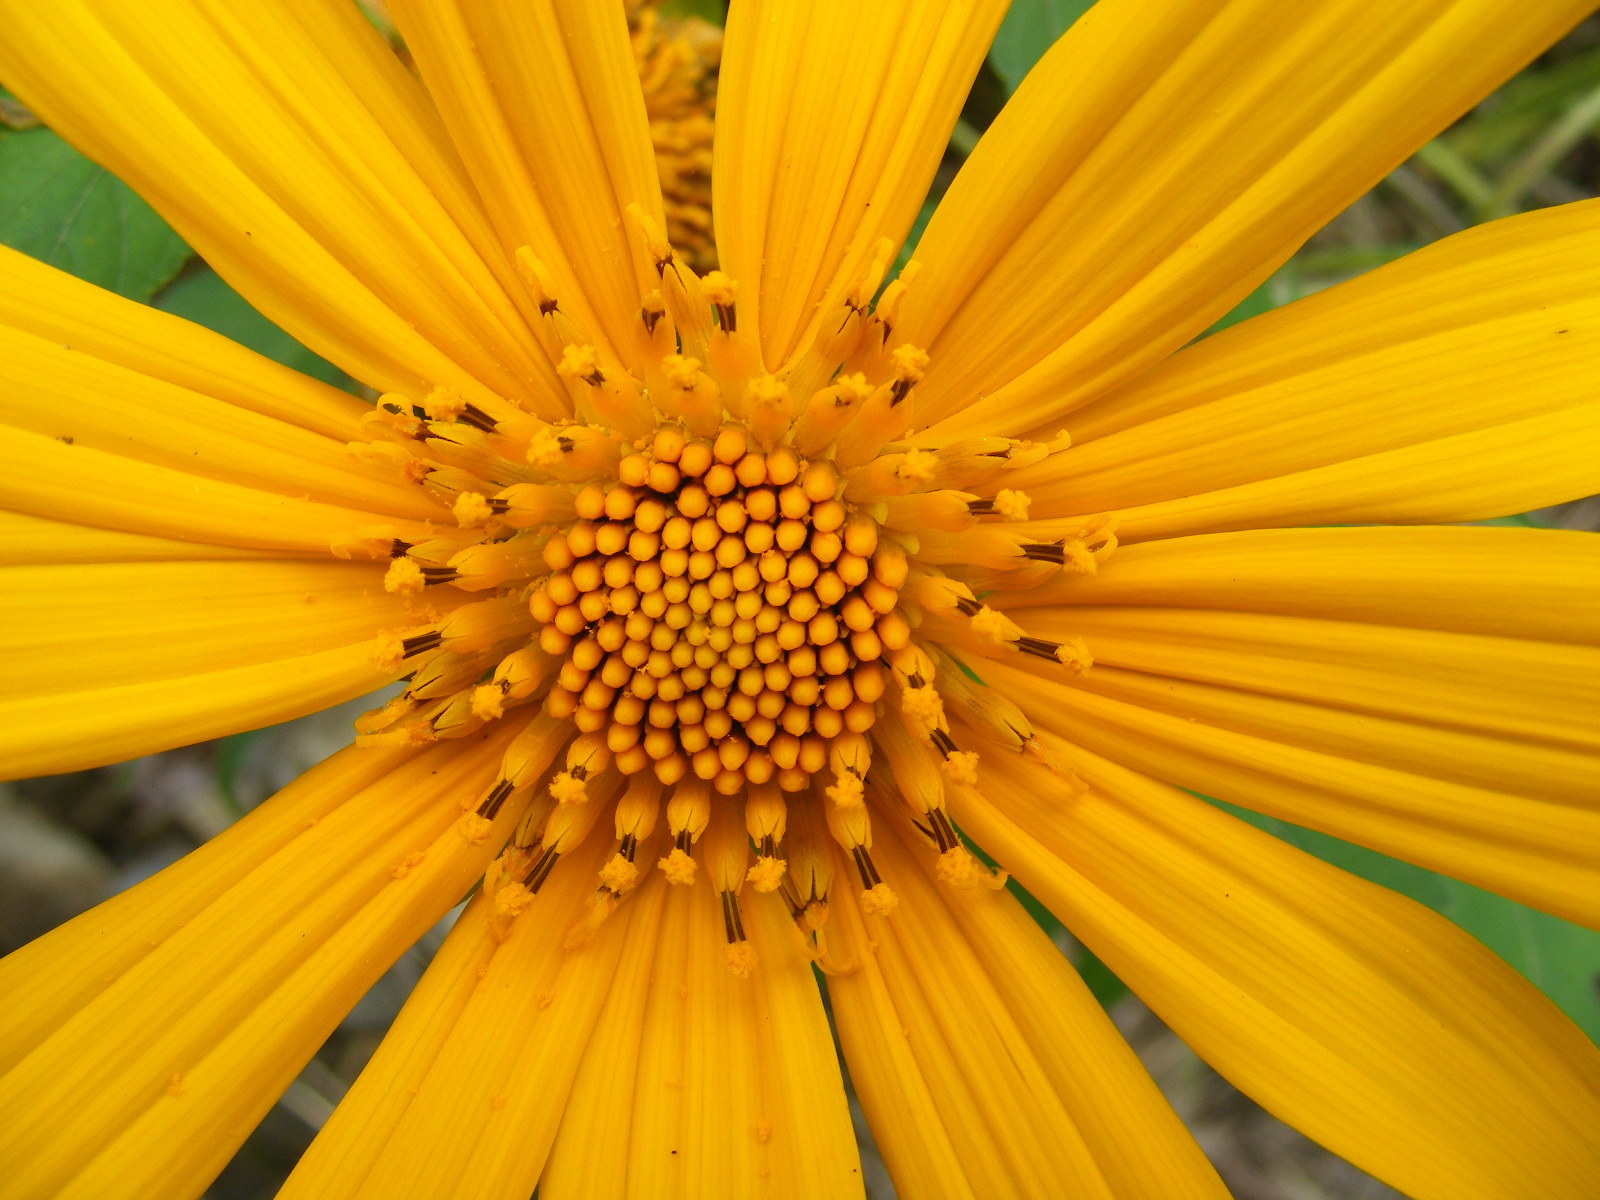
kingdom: Plantae
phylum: Tracheophyta
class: Magnoliopsida
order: Asterales
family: Asteraceae
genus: Tithonia
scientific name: Tithonia diversifolia
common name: Tree marigold
